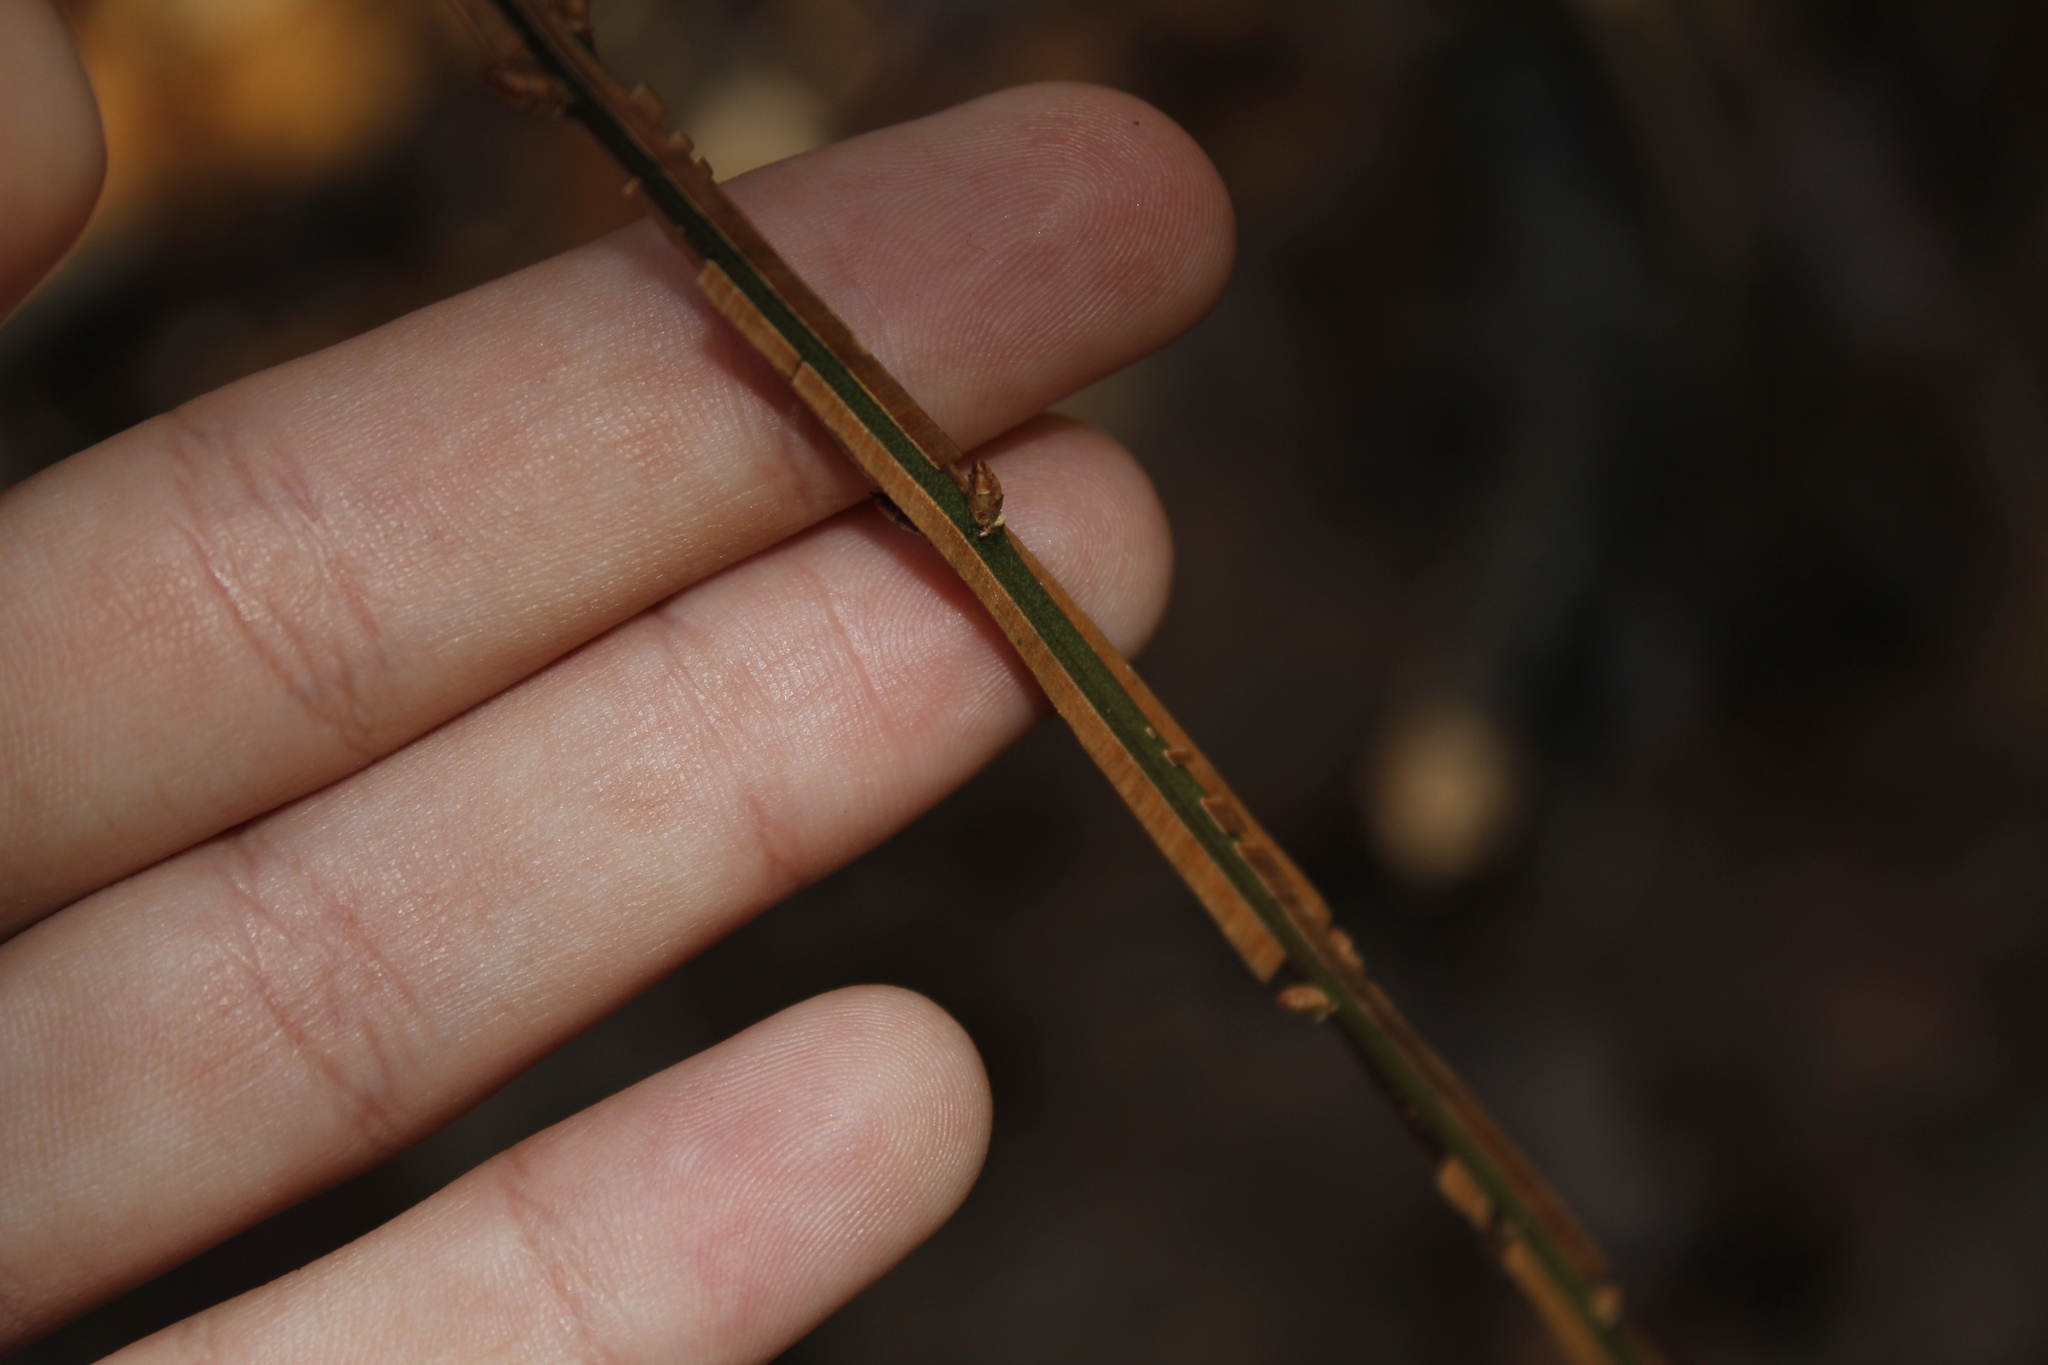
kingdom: Plantae
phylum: Tracheophyta
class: Magnoliopsida
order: Celastrales
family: Celastraceae
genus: Euonymus
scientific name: Euonymus alatus
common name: Winged euonymus
